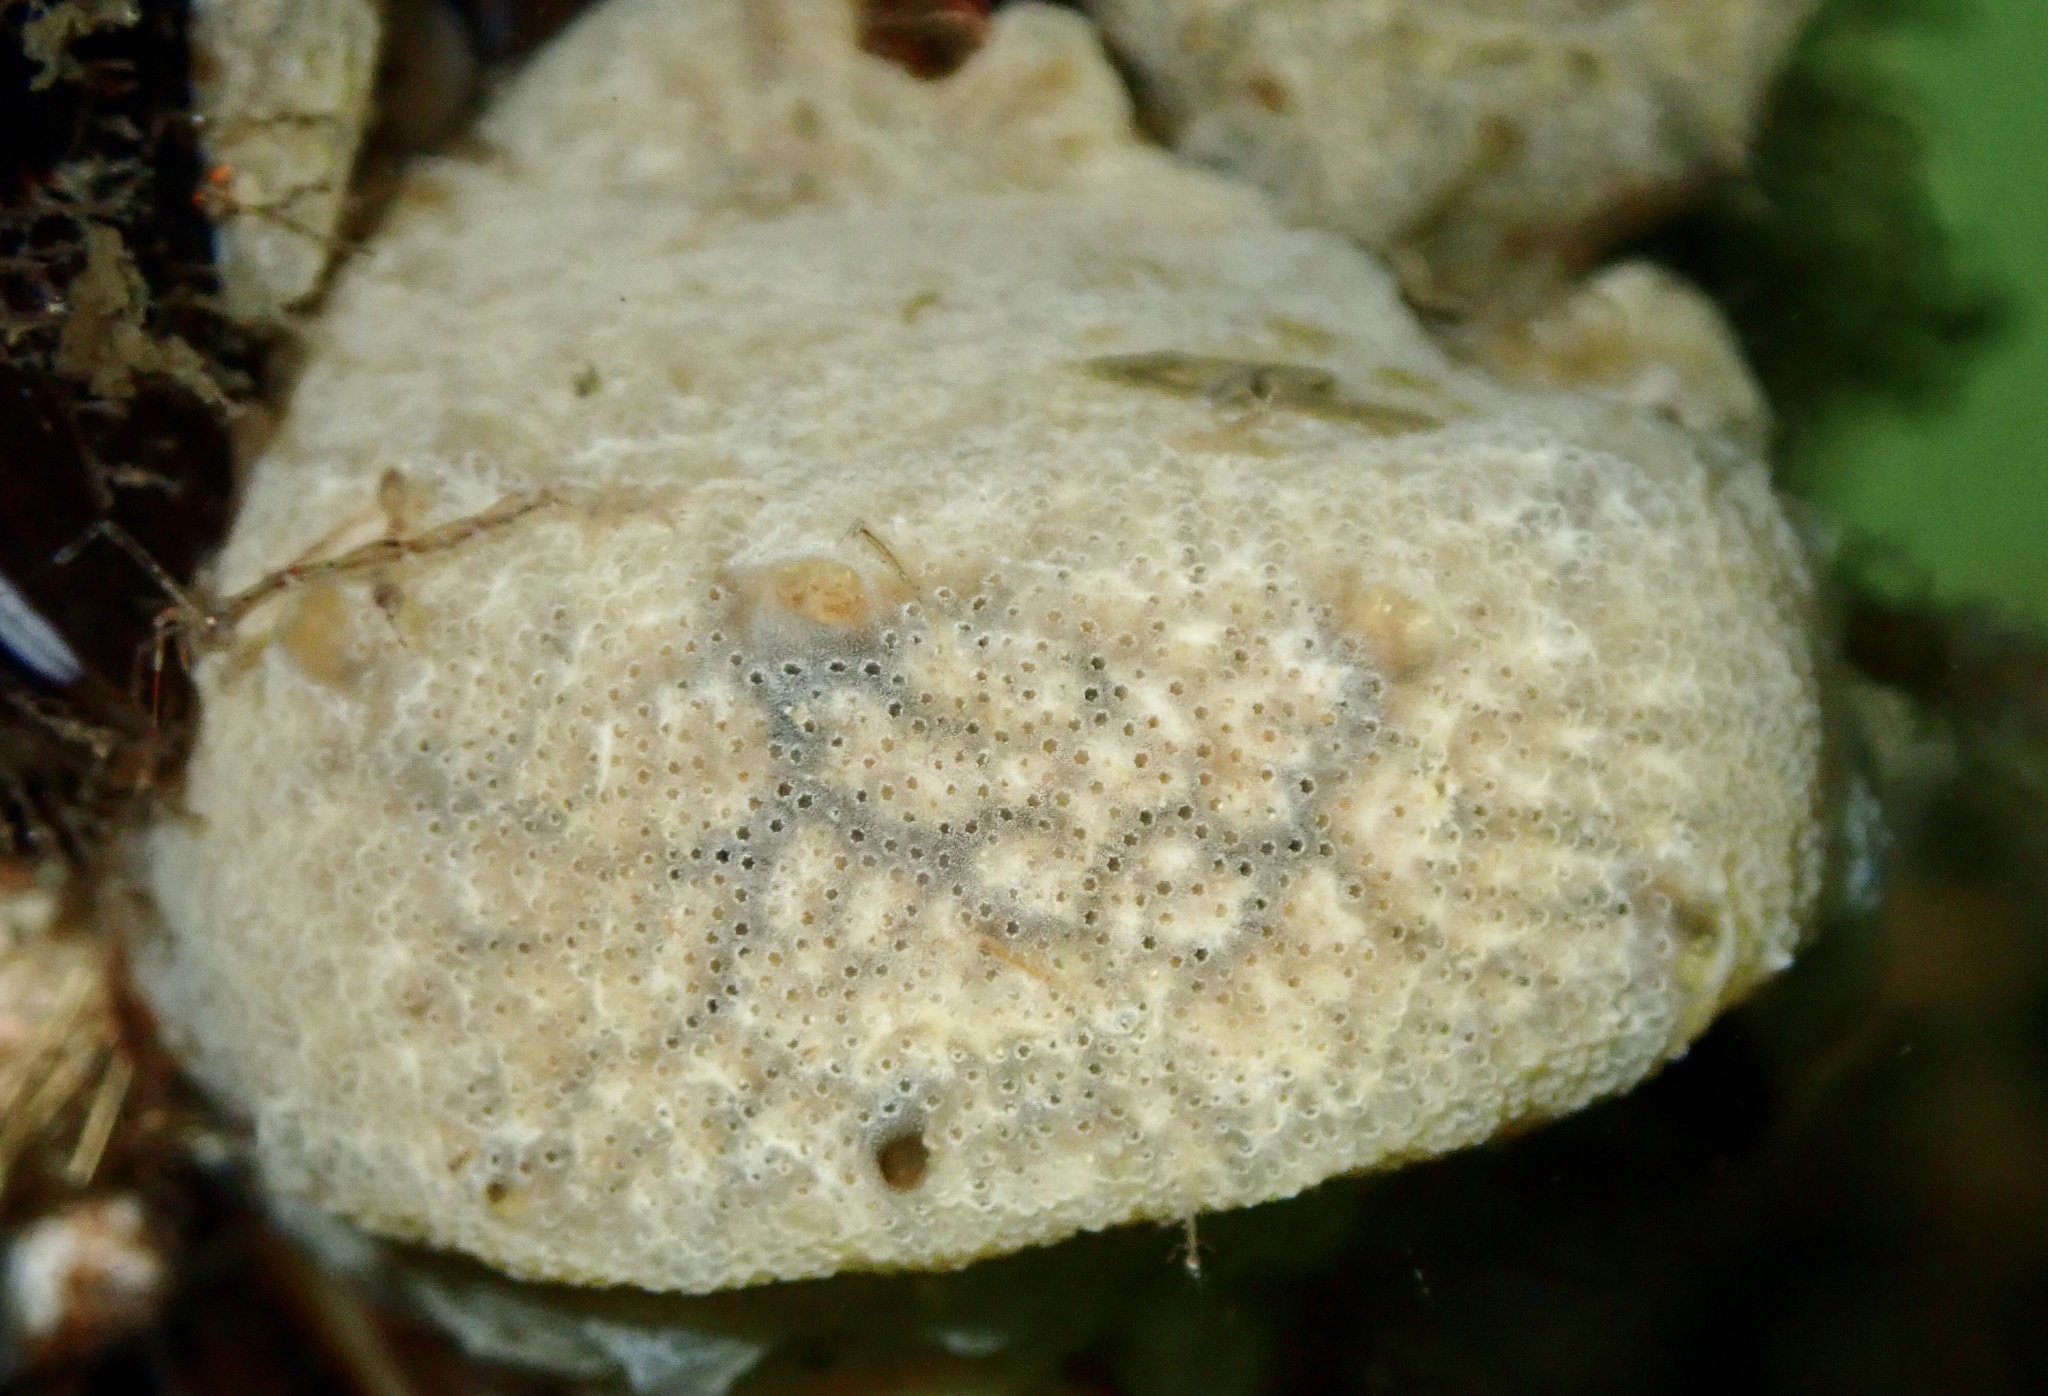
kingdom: Animalia
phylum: Chordata
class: Ascidiacea
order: Aplousobranchia
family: Didemnidae
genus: Didemnum
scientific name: Didemnum vexillum
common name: Compound sea squirt
